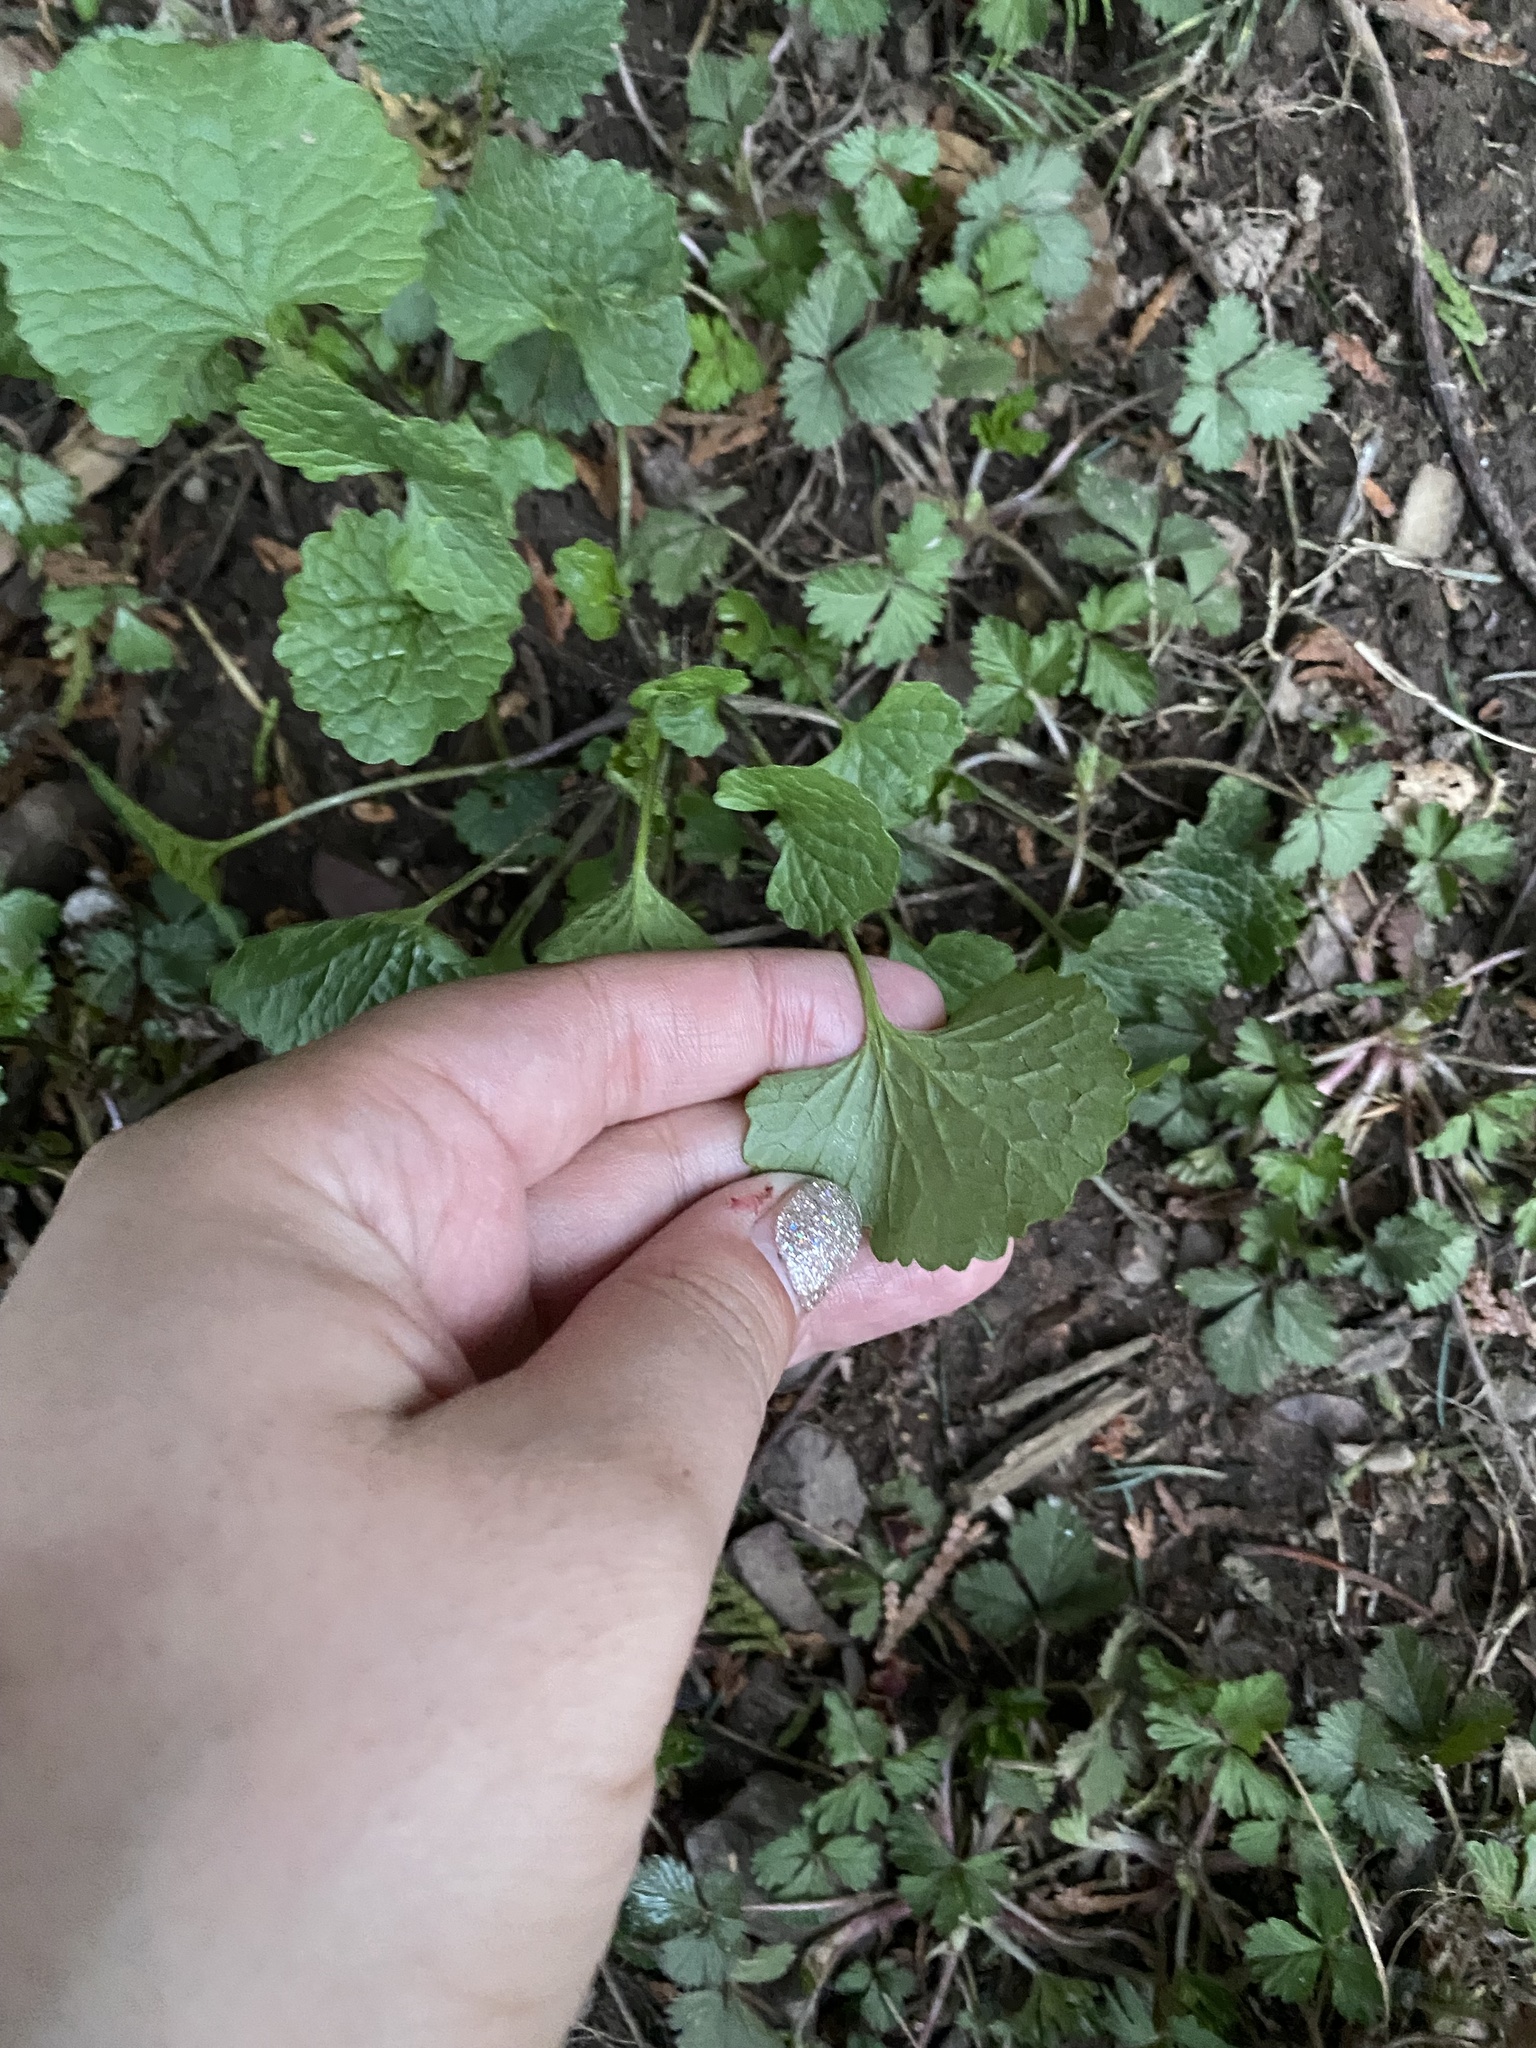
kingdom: Plantae
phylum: Tracheophyta
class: Magnoliopsida
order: Brassicales
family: Brassicaceae
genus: Alliaria
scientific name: Alliaria petiolata
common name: Garlic mustard
